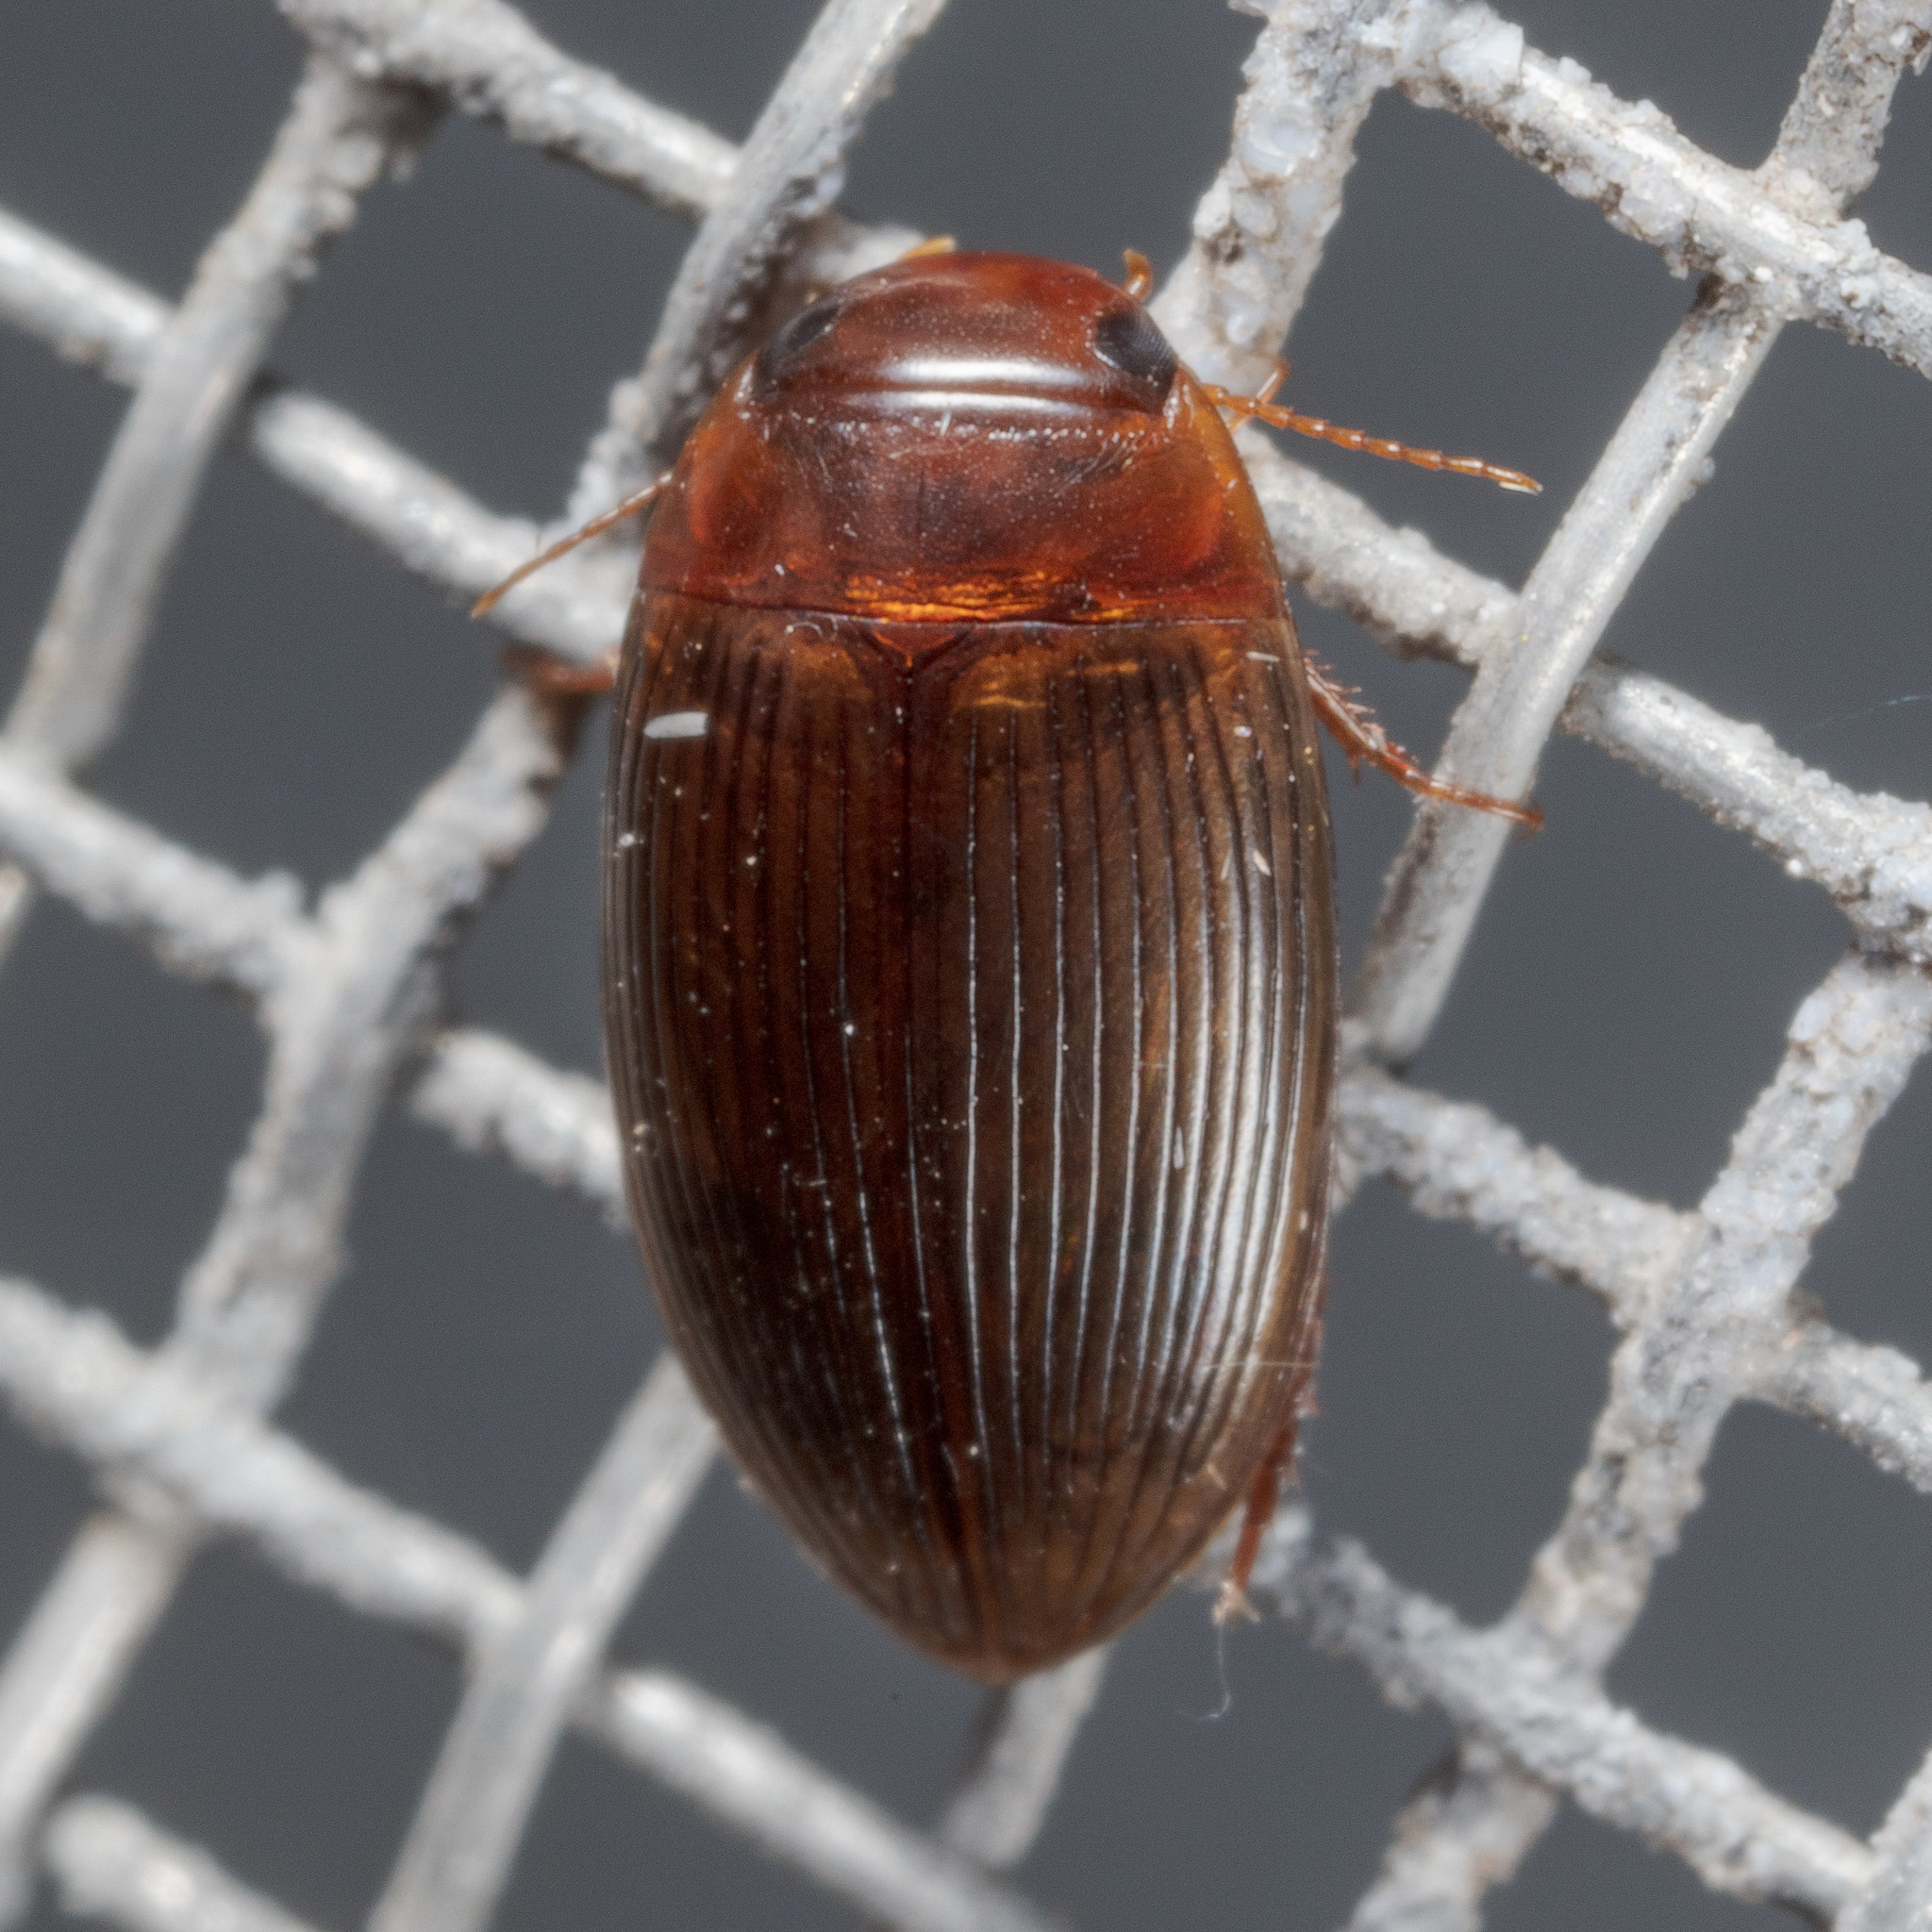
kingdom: Animalia
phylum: Arthropoda
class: Insecta
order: Coleoptera
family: Dytiscidae
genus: Copelatus
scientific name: Copelatus glyphicus
